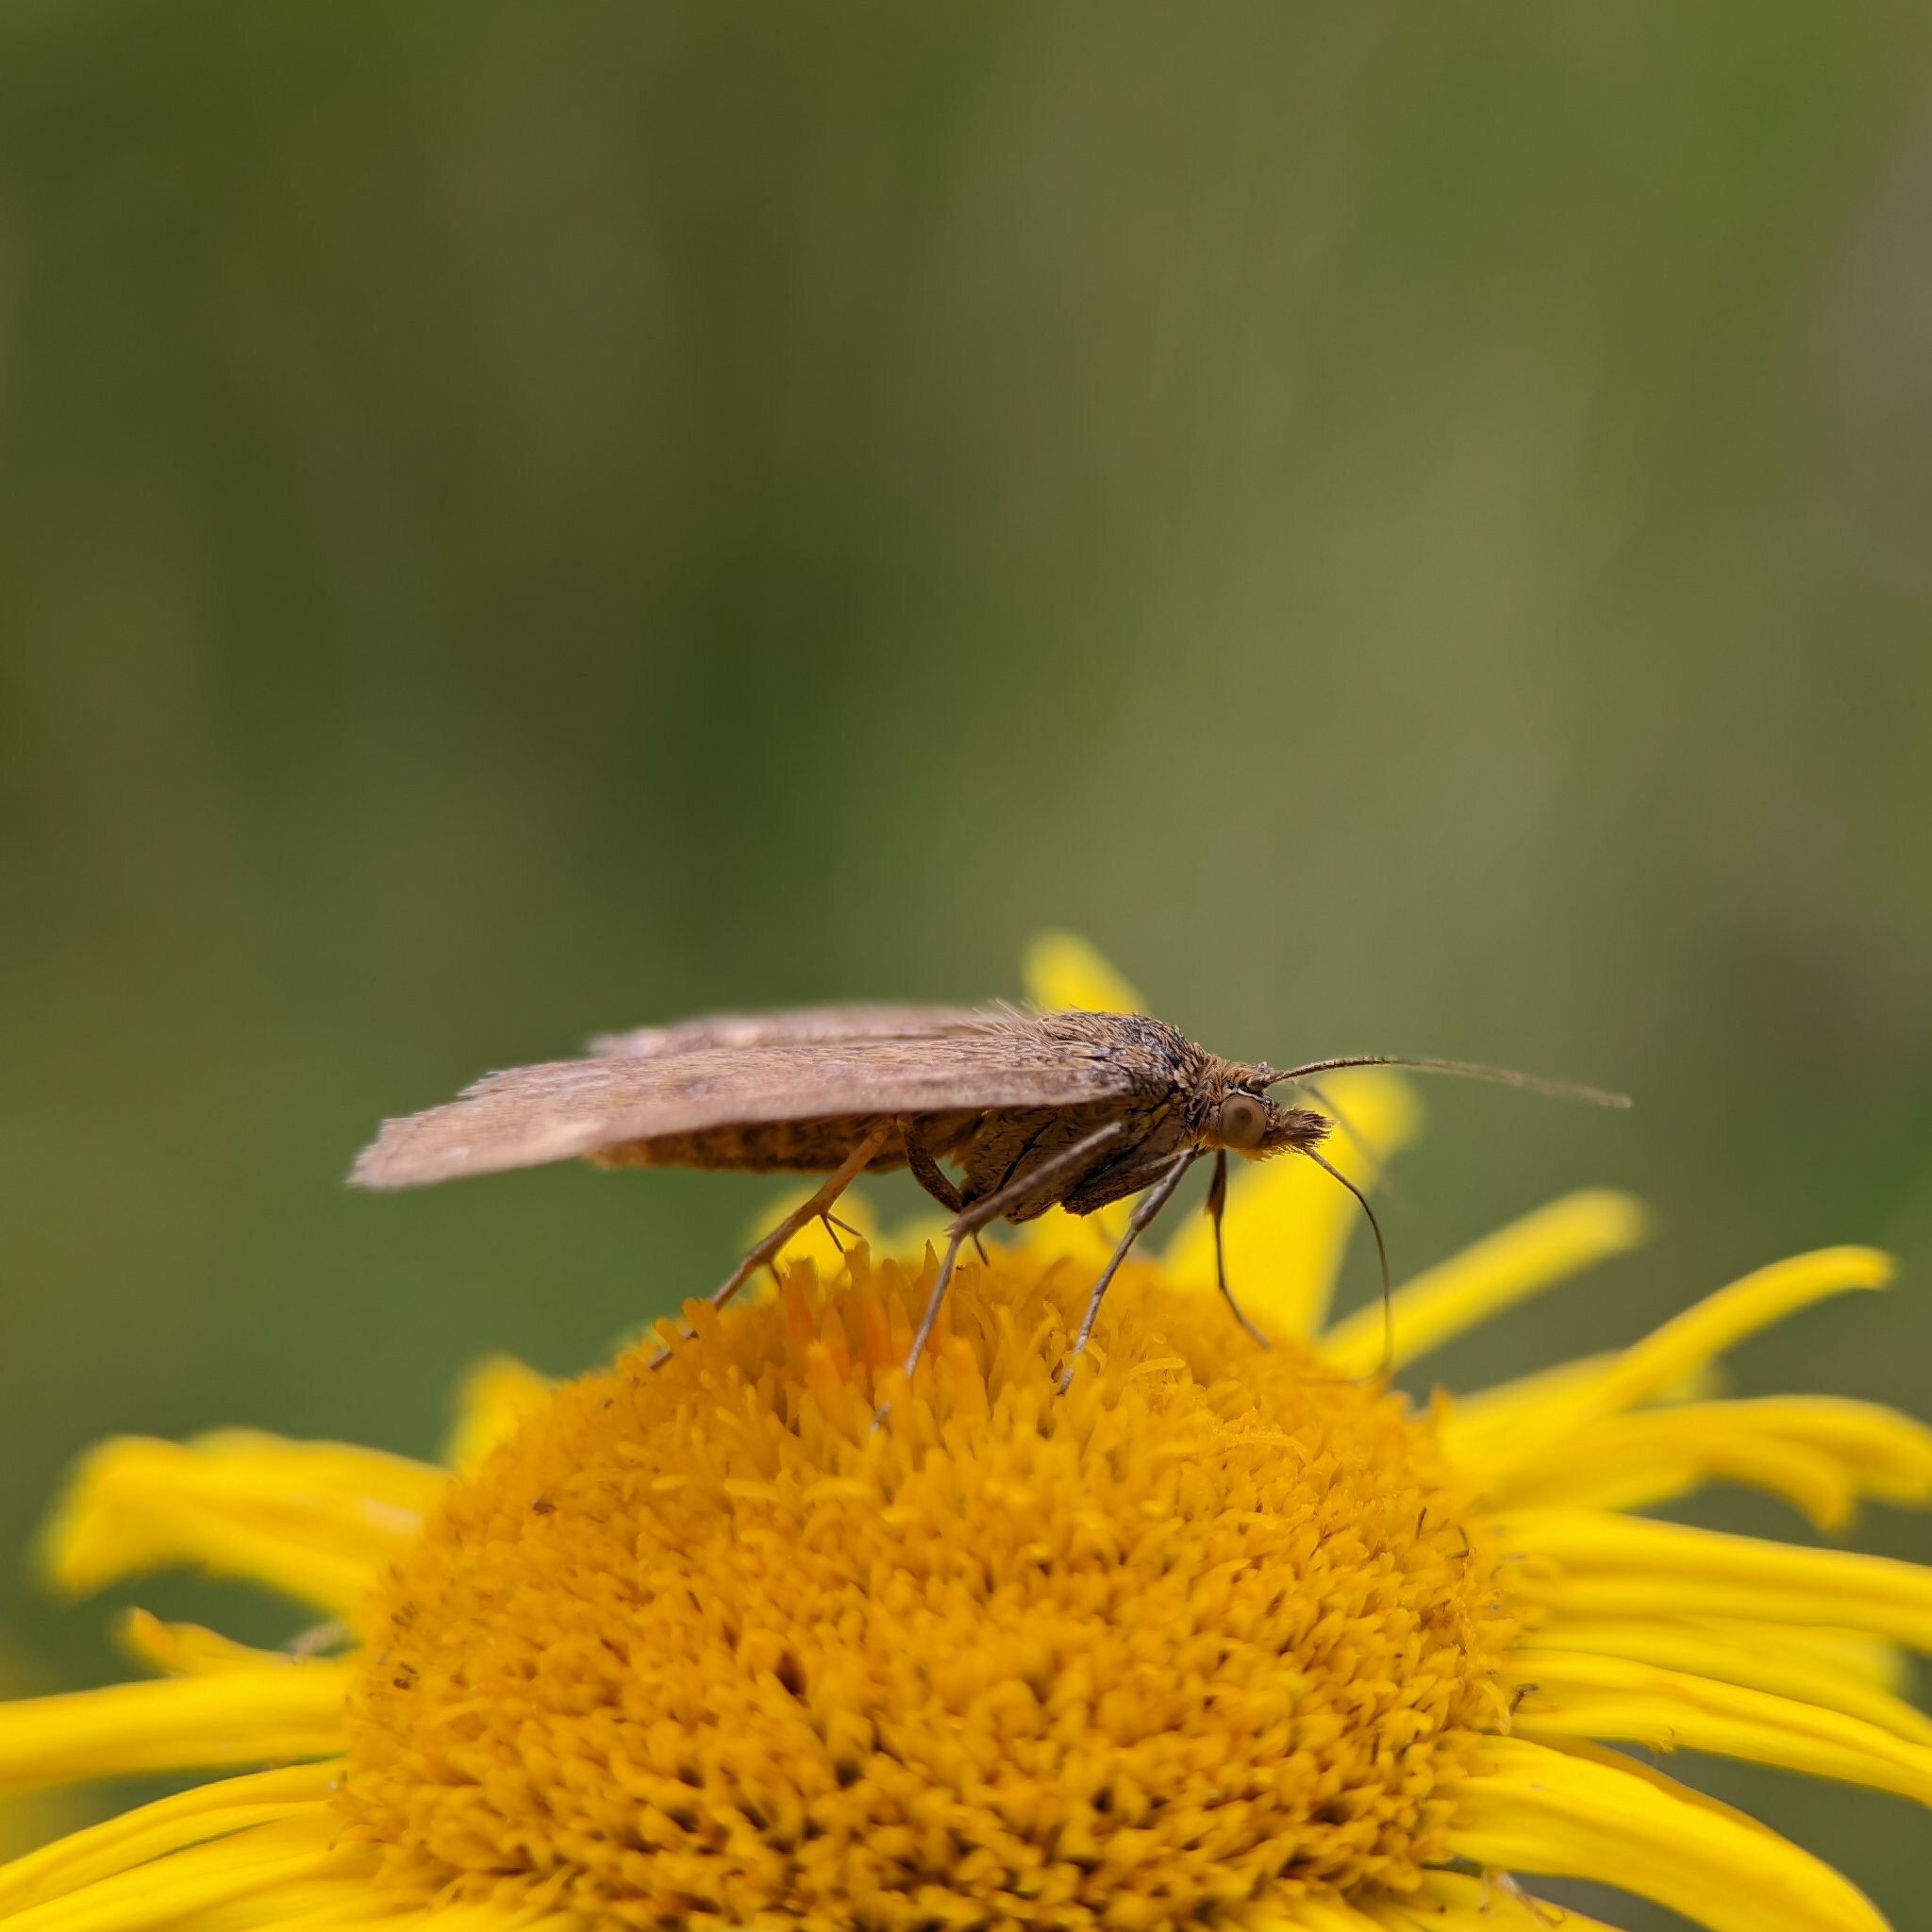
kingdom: Animalia
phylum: Arthropoda
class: Insecta
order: Lepidoptera
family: Crambidae
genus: Pyrausta
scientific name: Pyrausta despicata
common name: Straw-barred pearl
